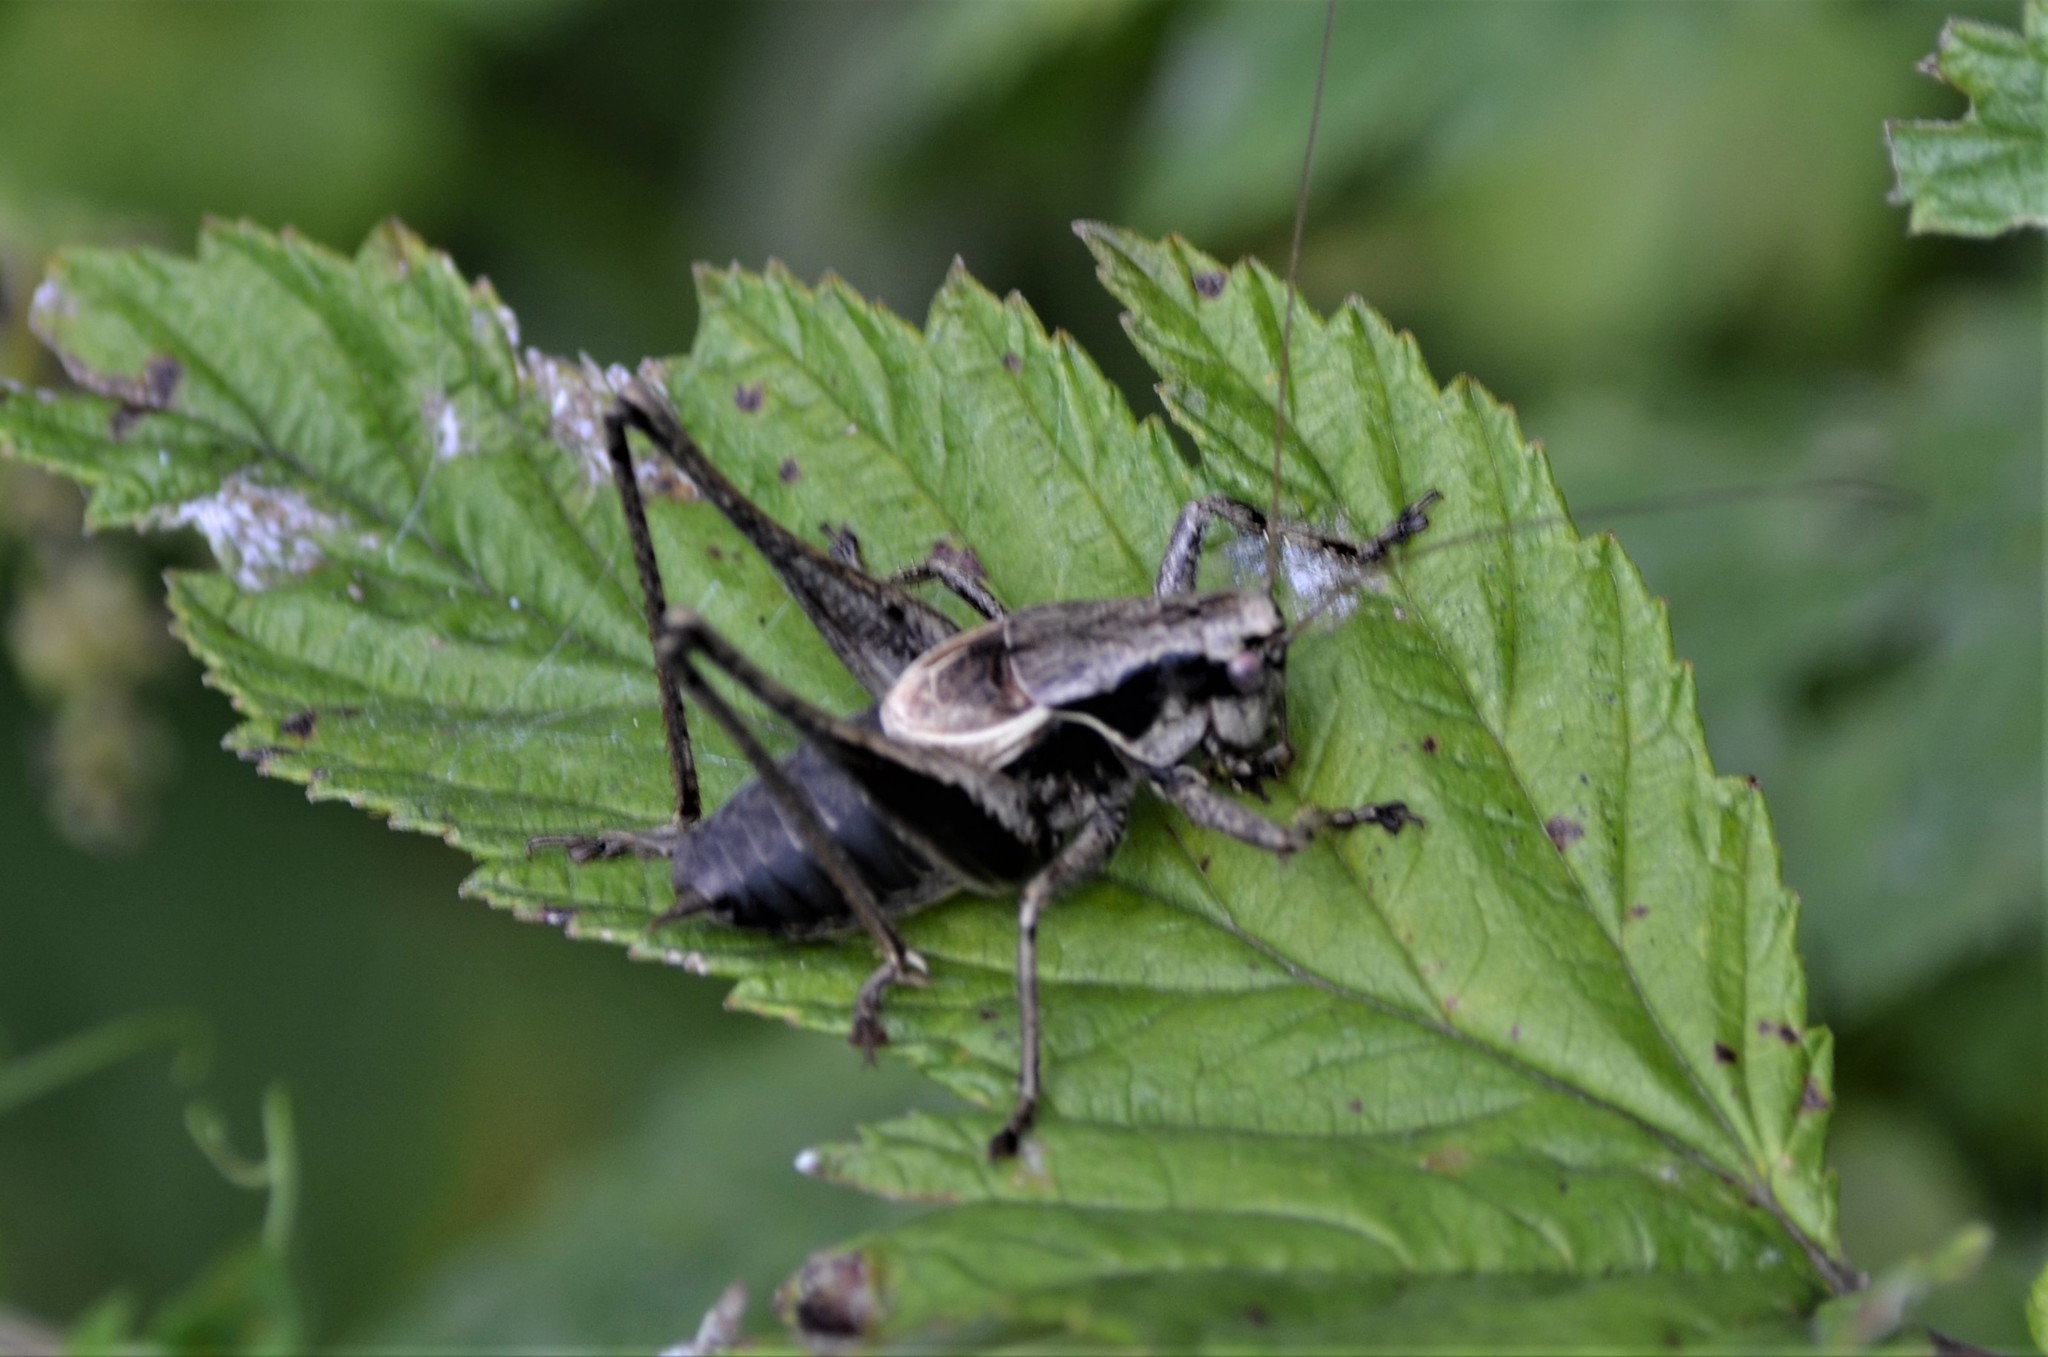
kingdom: Animalia
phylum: Arthropoda
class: Insecta
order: Orthoptera
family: Tettigoniidae
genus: Pholidoptera
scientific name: Pholidoptera griseoaptera
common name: Dark bush-cricket
